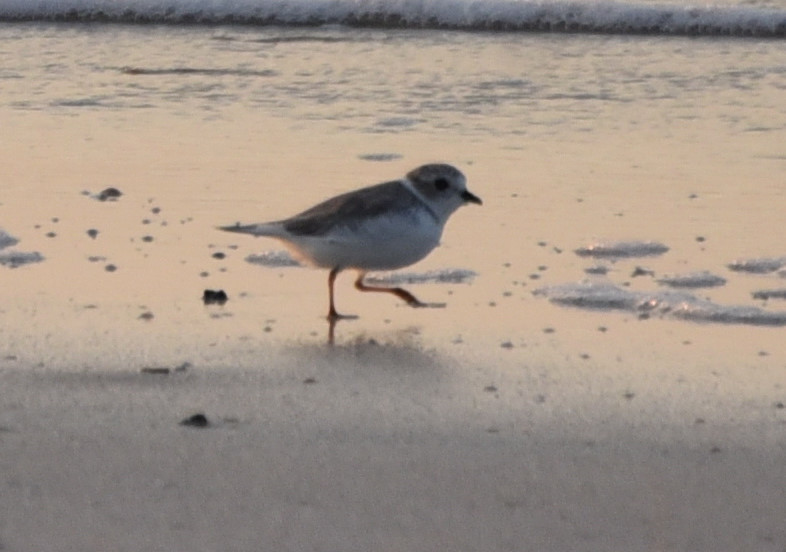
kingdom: Animalia
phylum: Chordata
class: Aves
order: Charadriiformes
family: Charadriidae
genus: Charadrius
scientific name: Charadrius melodus
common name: Piping plover
